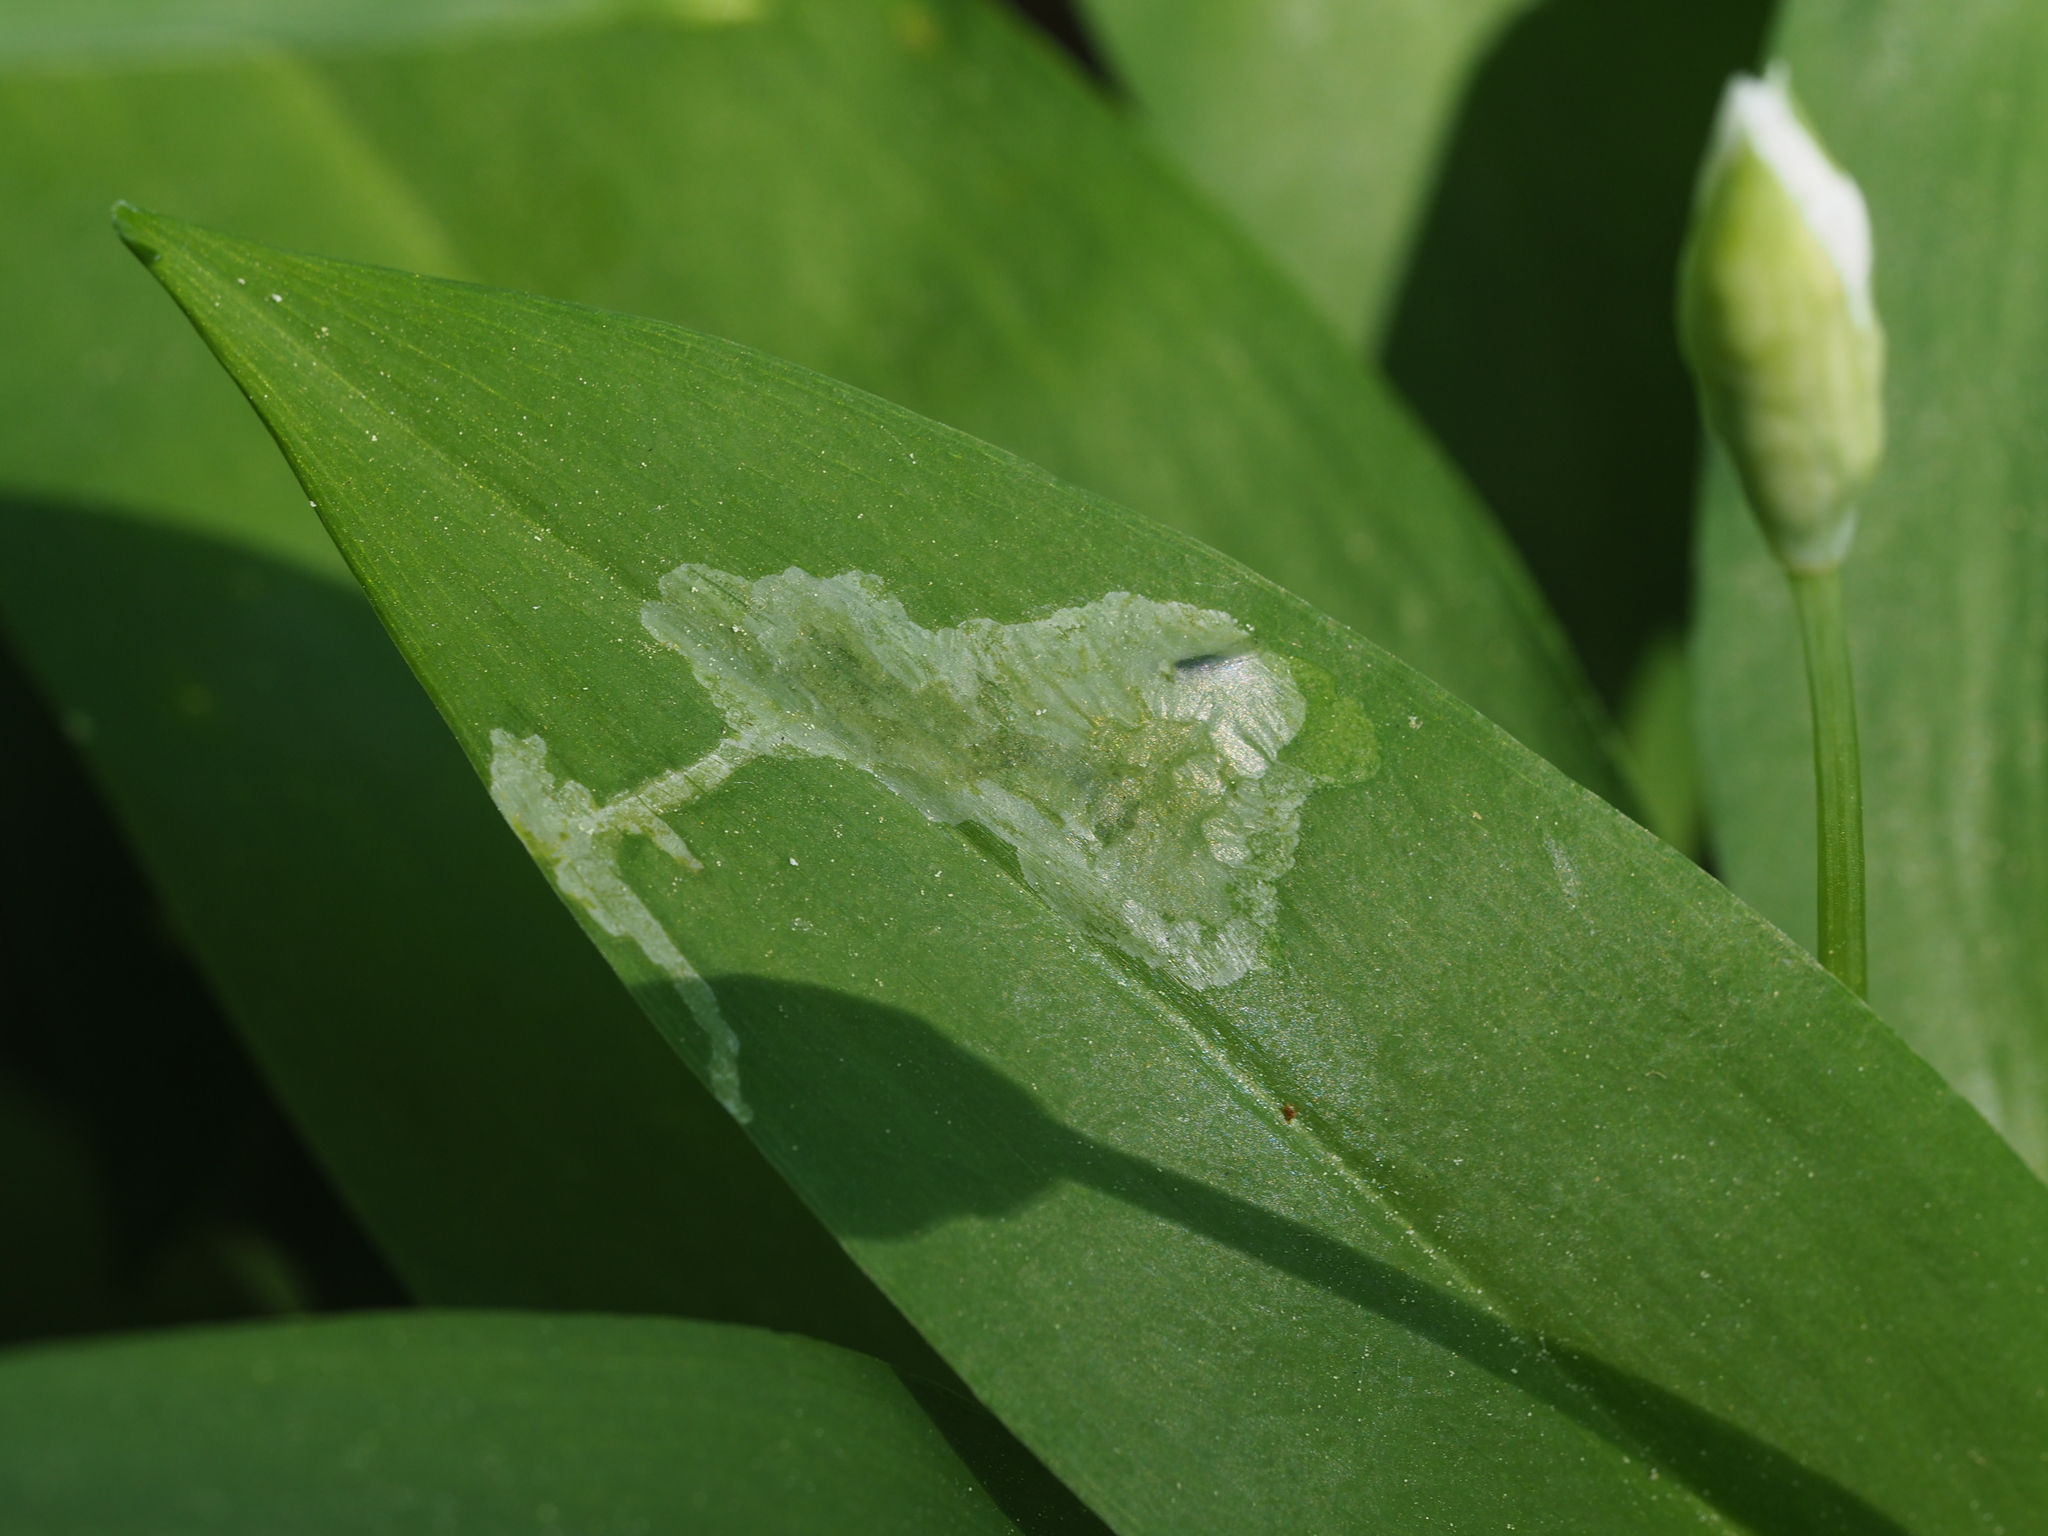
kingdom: Animalia
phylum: Arthropoda
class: Insecta
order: Diptera
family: Syrphidae
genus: Cheilosia
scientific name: Cheilosia fasciata
